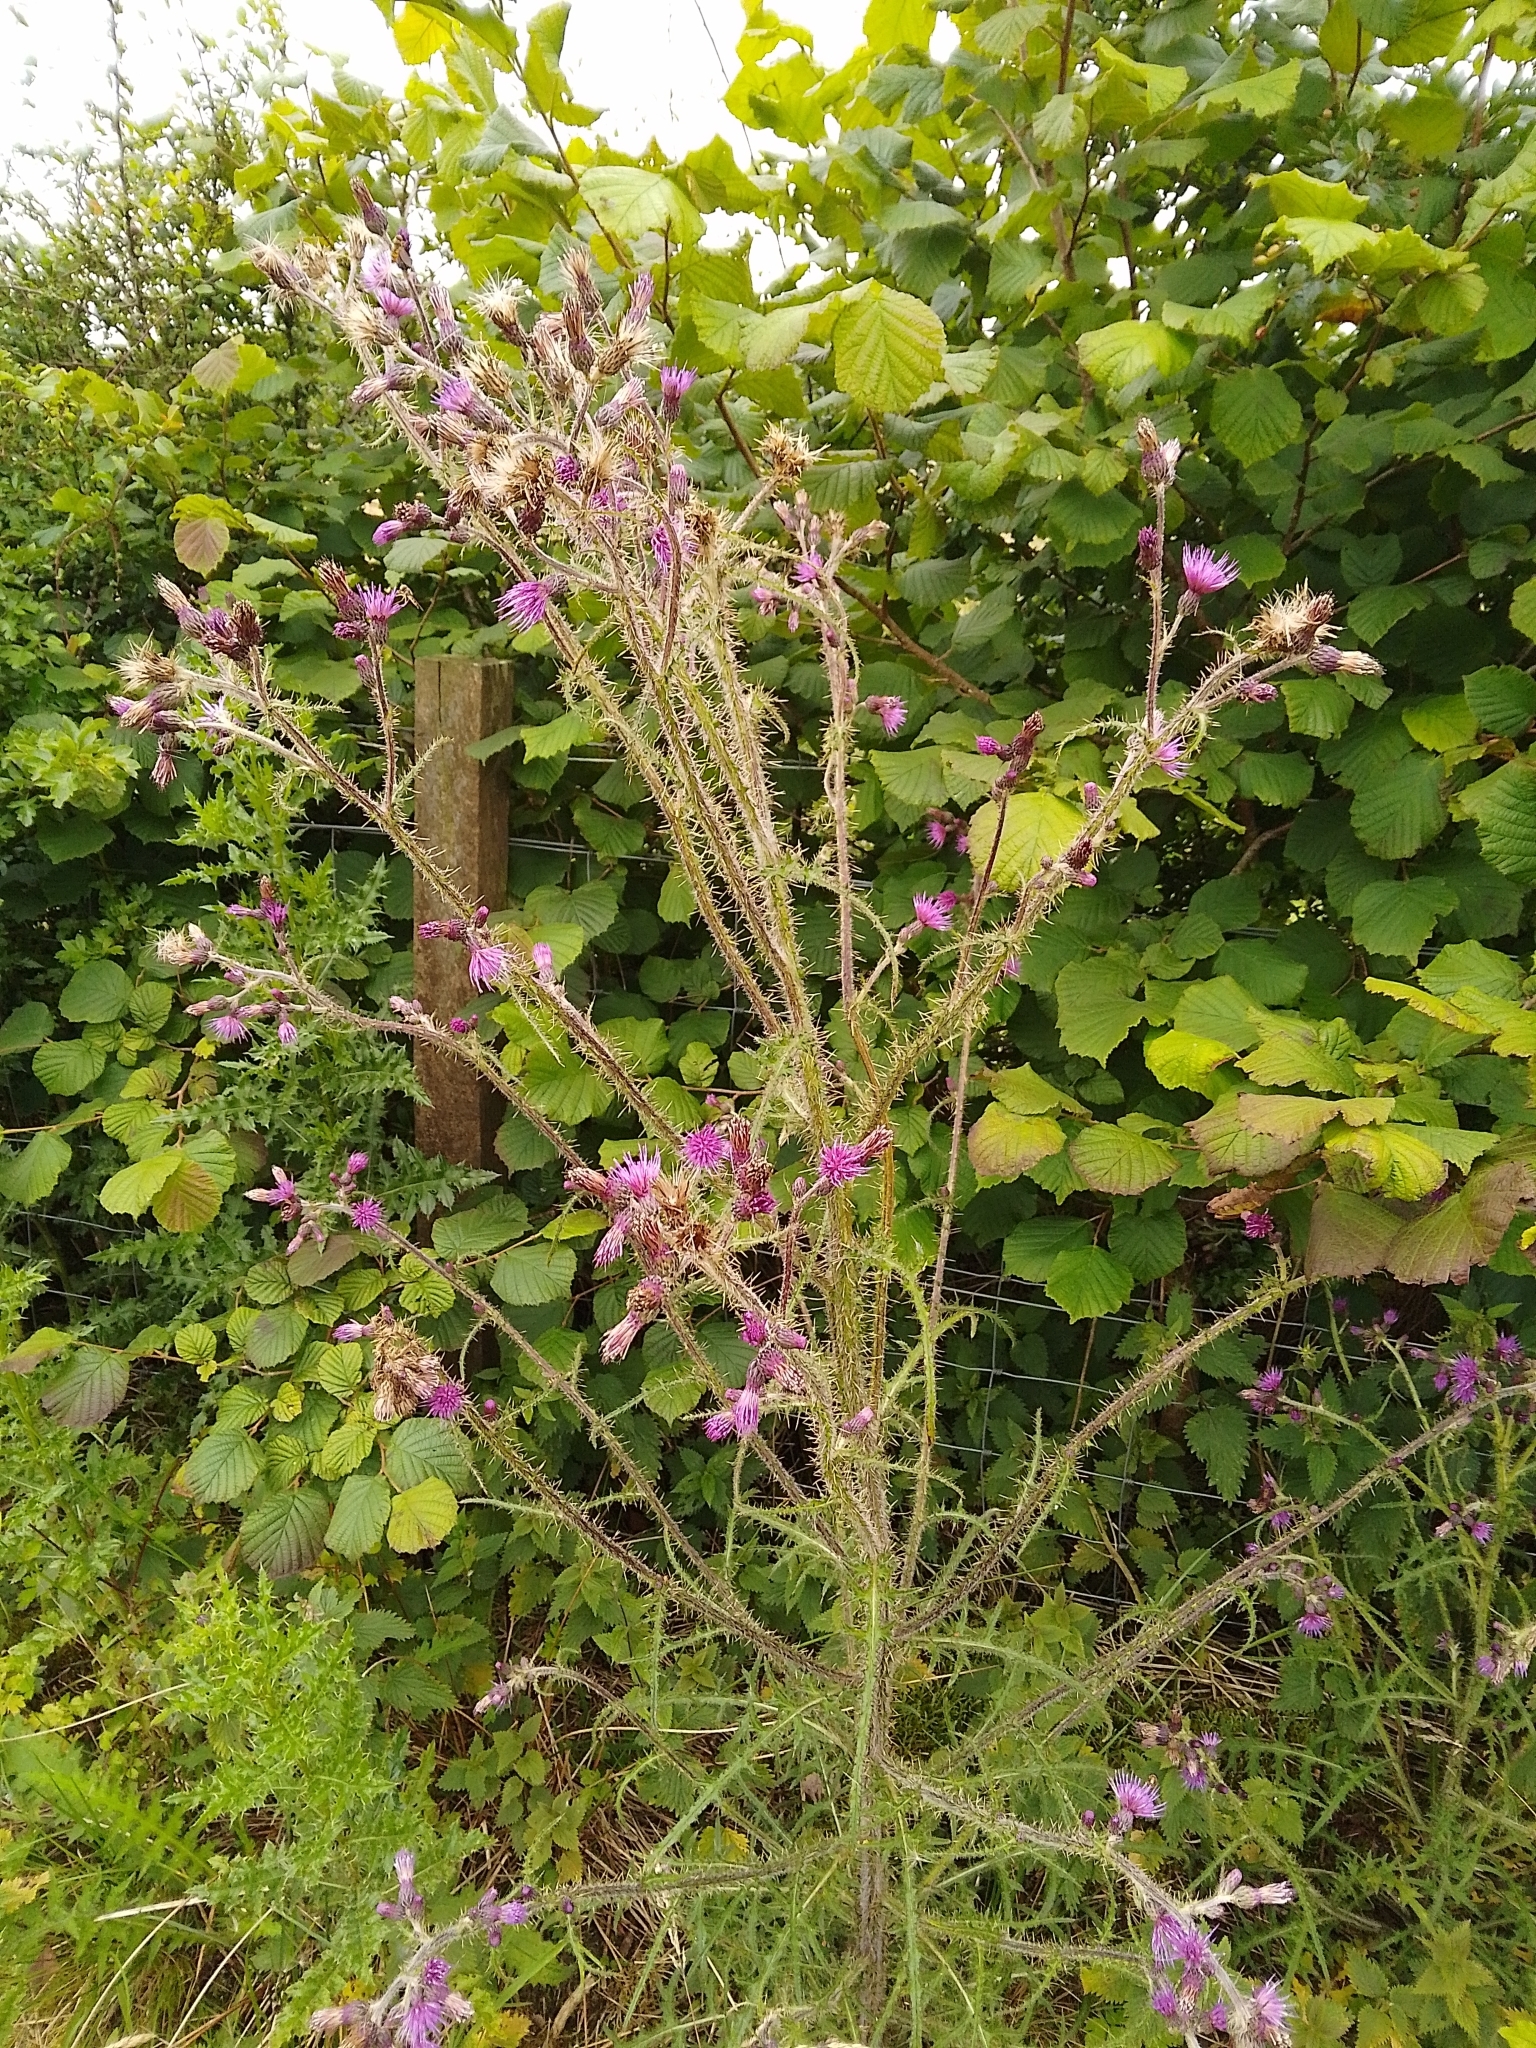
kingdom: Plantae
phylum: Tracheophyta
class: Magnoliopsida
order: Asterales
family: Asteraceae
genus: Cirsium
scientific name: Cirsium palustre
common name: Marsh thistle
